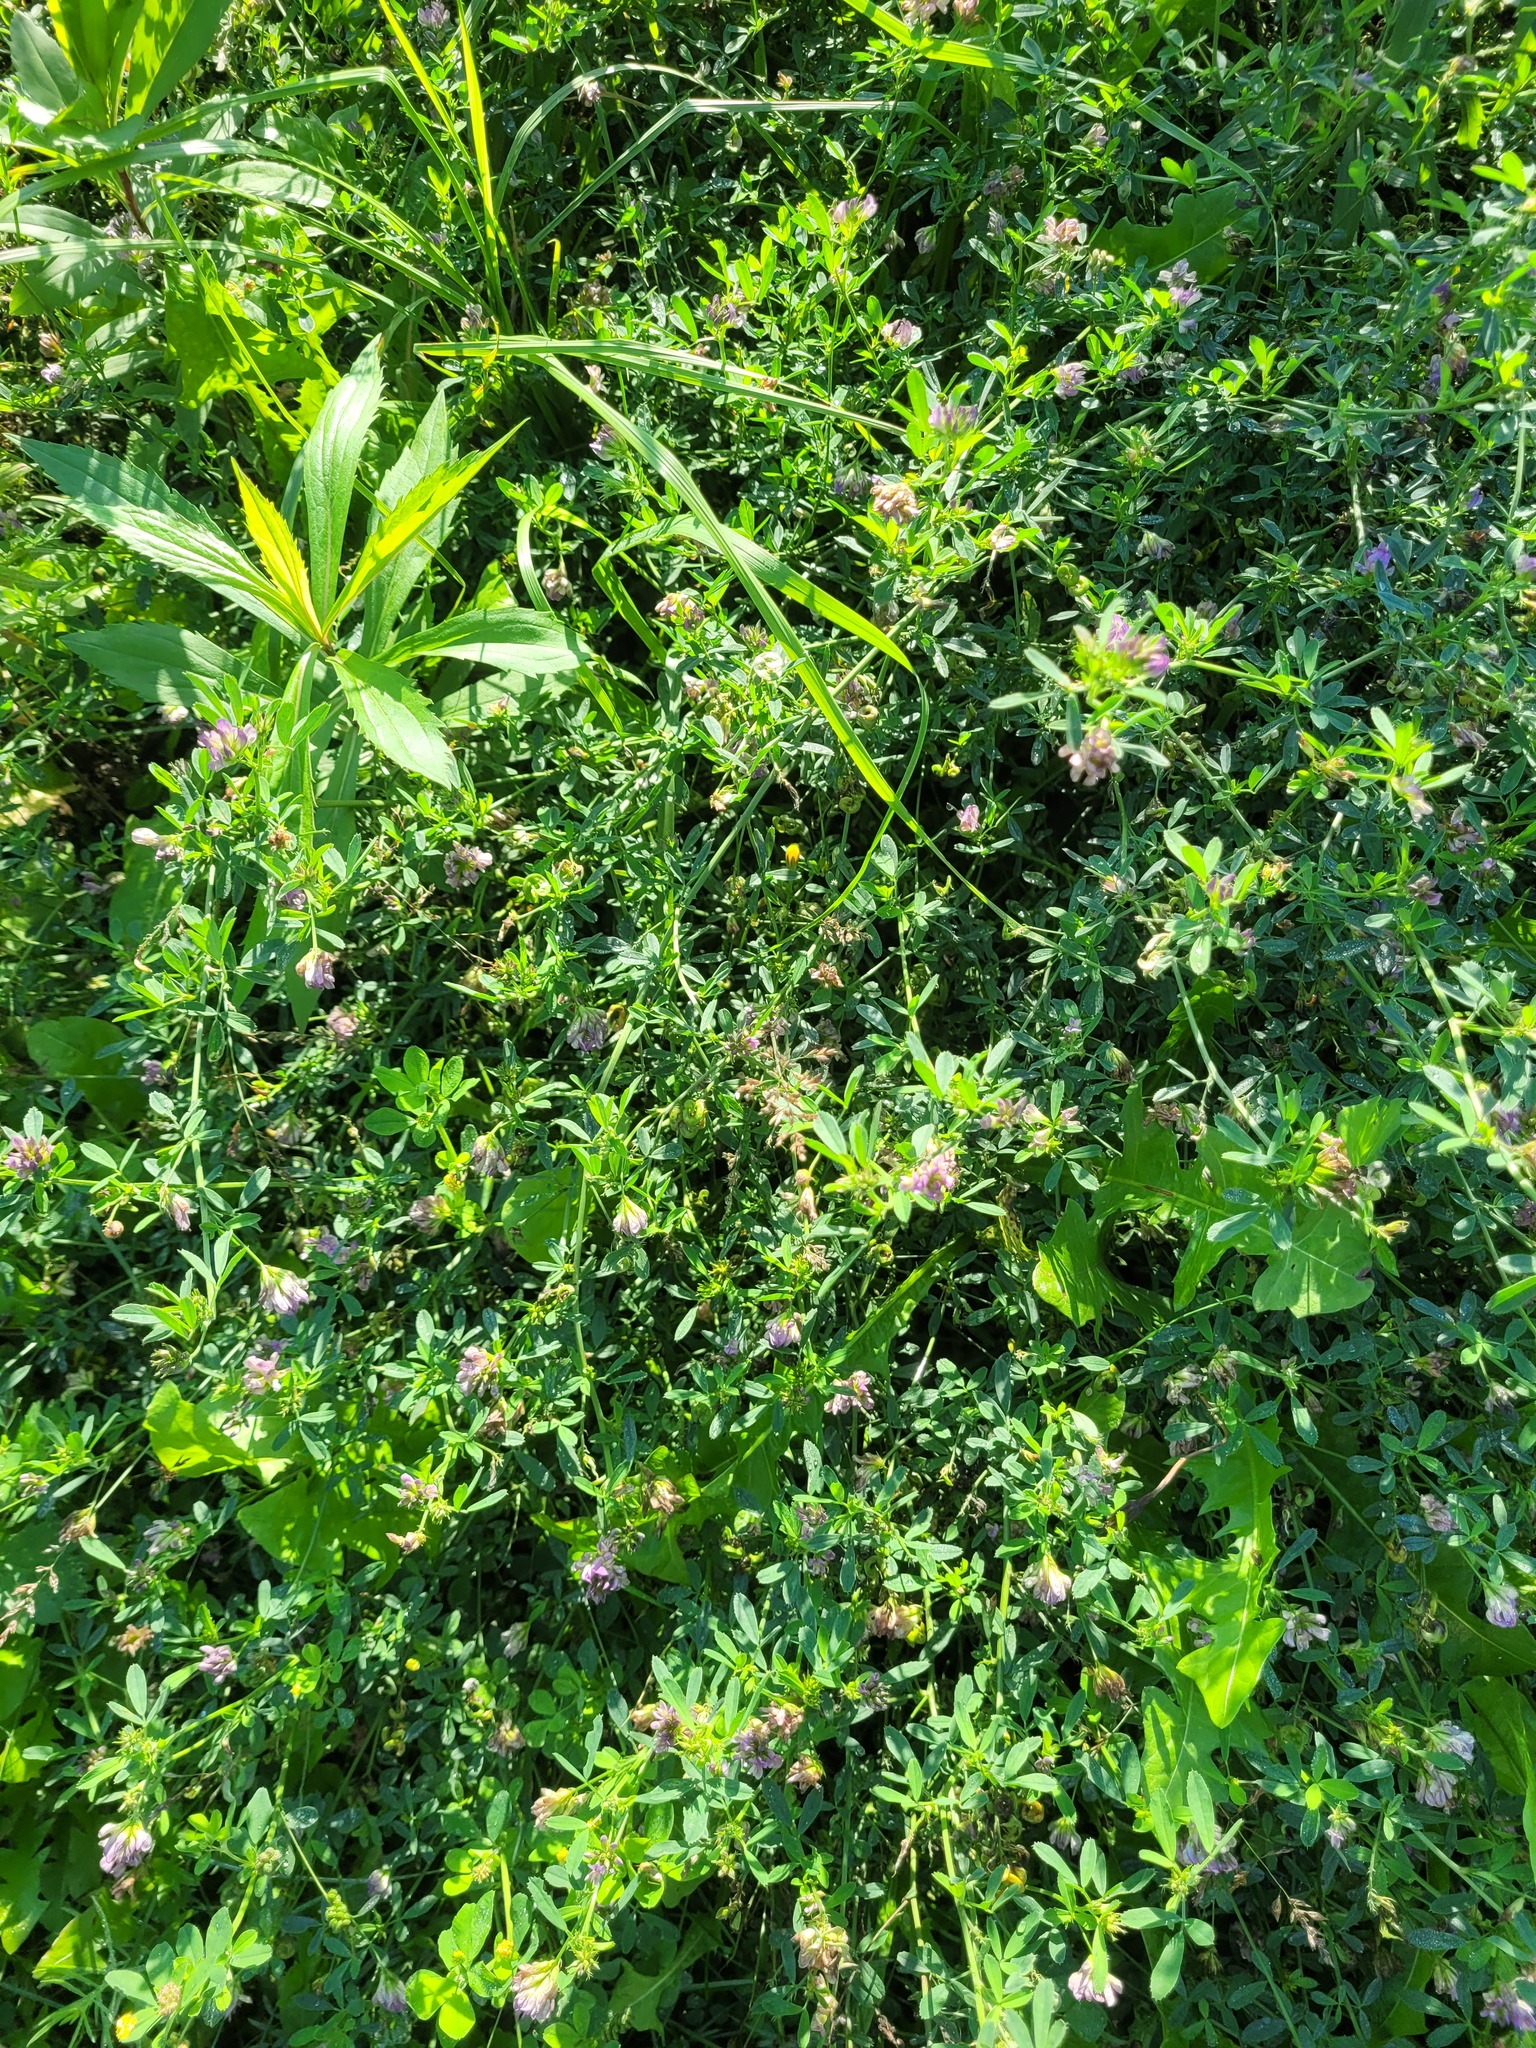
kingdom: Plantae
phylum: Tracheophyta
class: Magnoliopsida
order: Fabales
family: Fabaceae
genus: Medicago
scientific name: Medicago varia
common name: Sand lucerne
